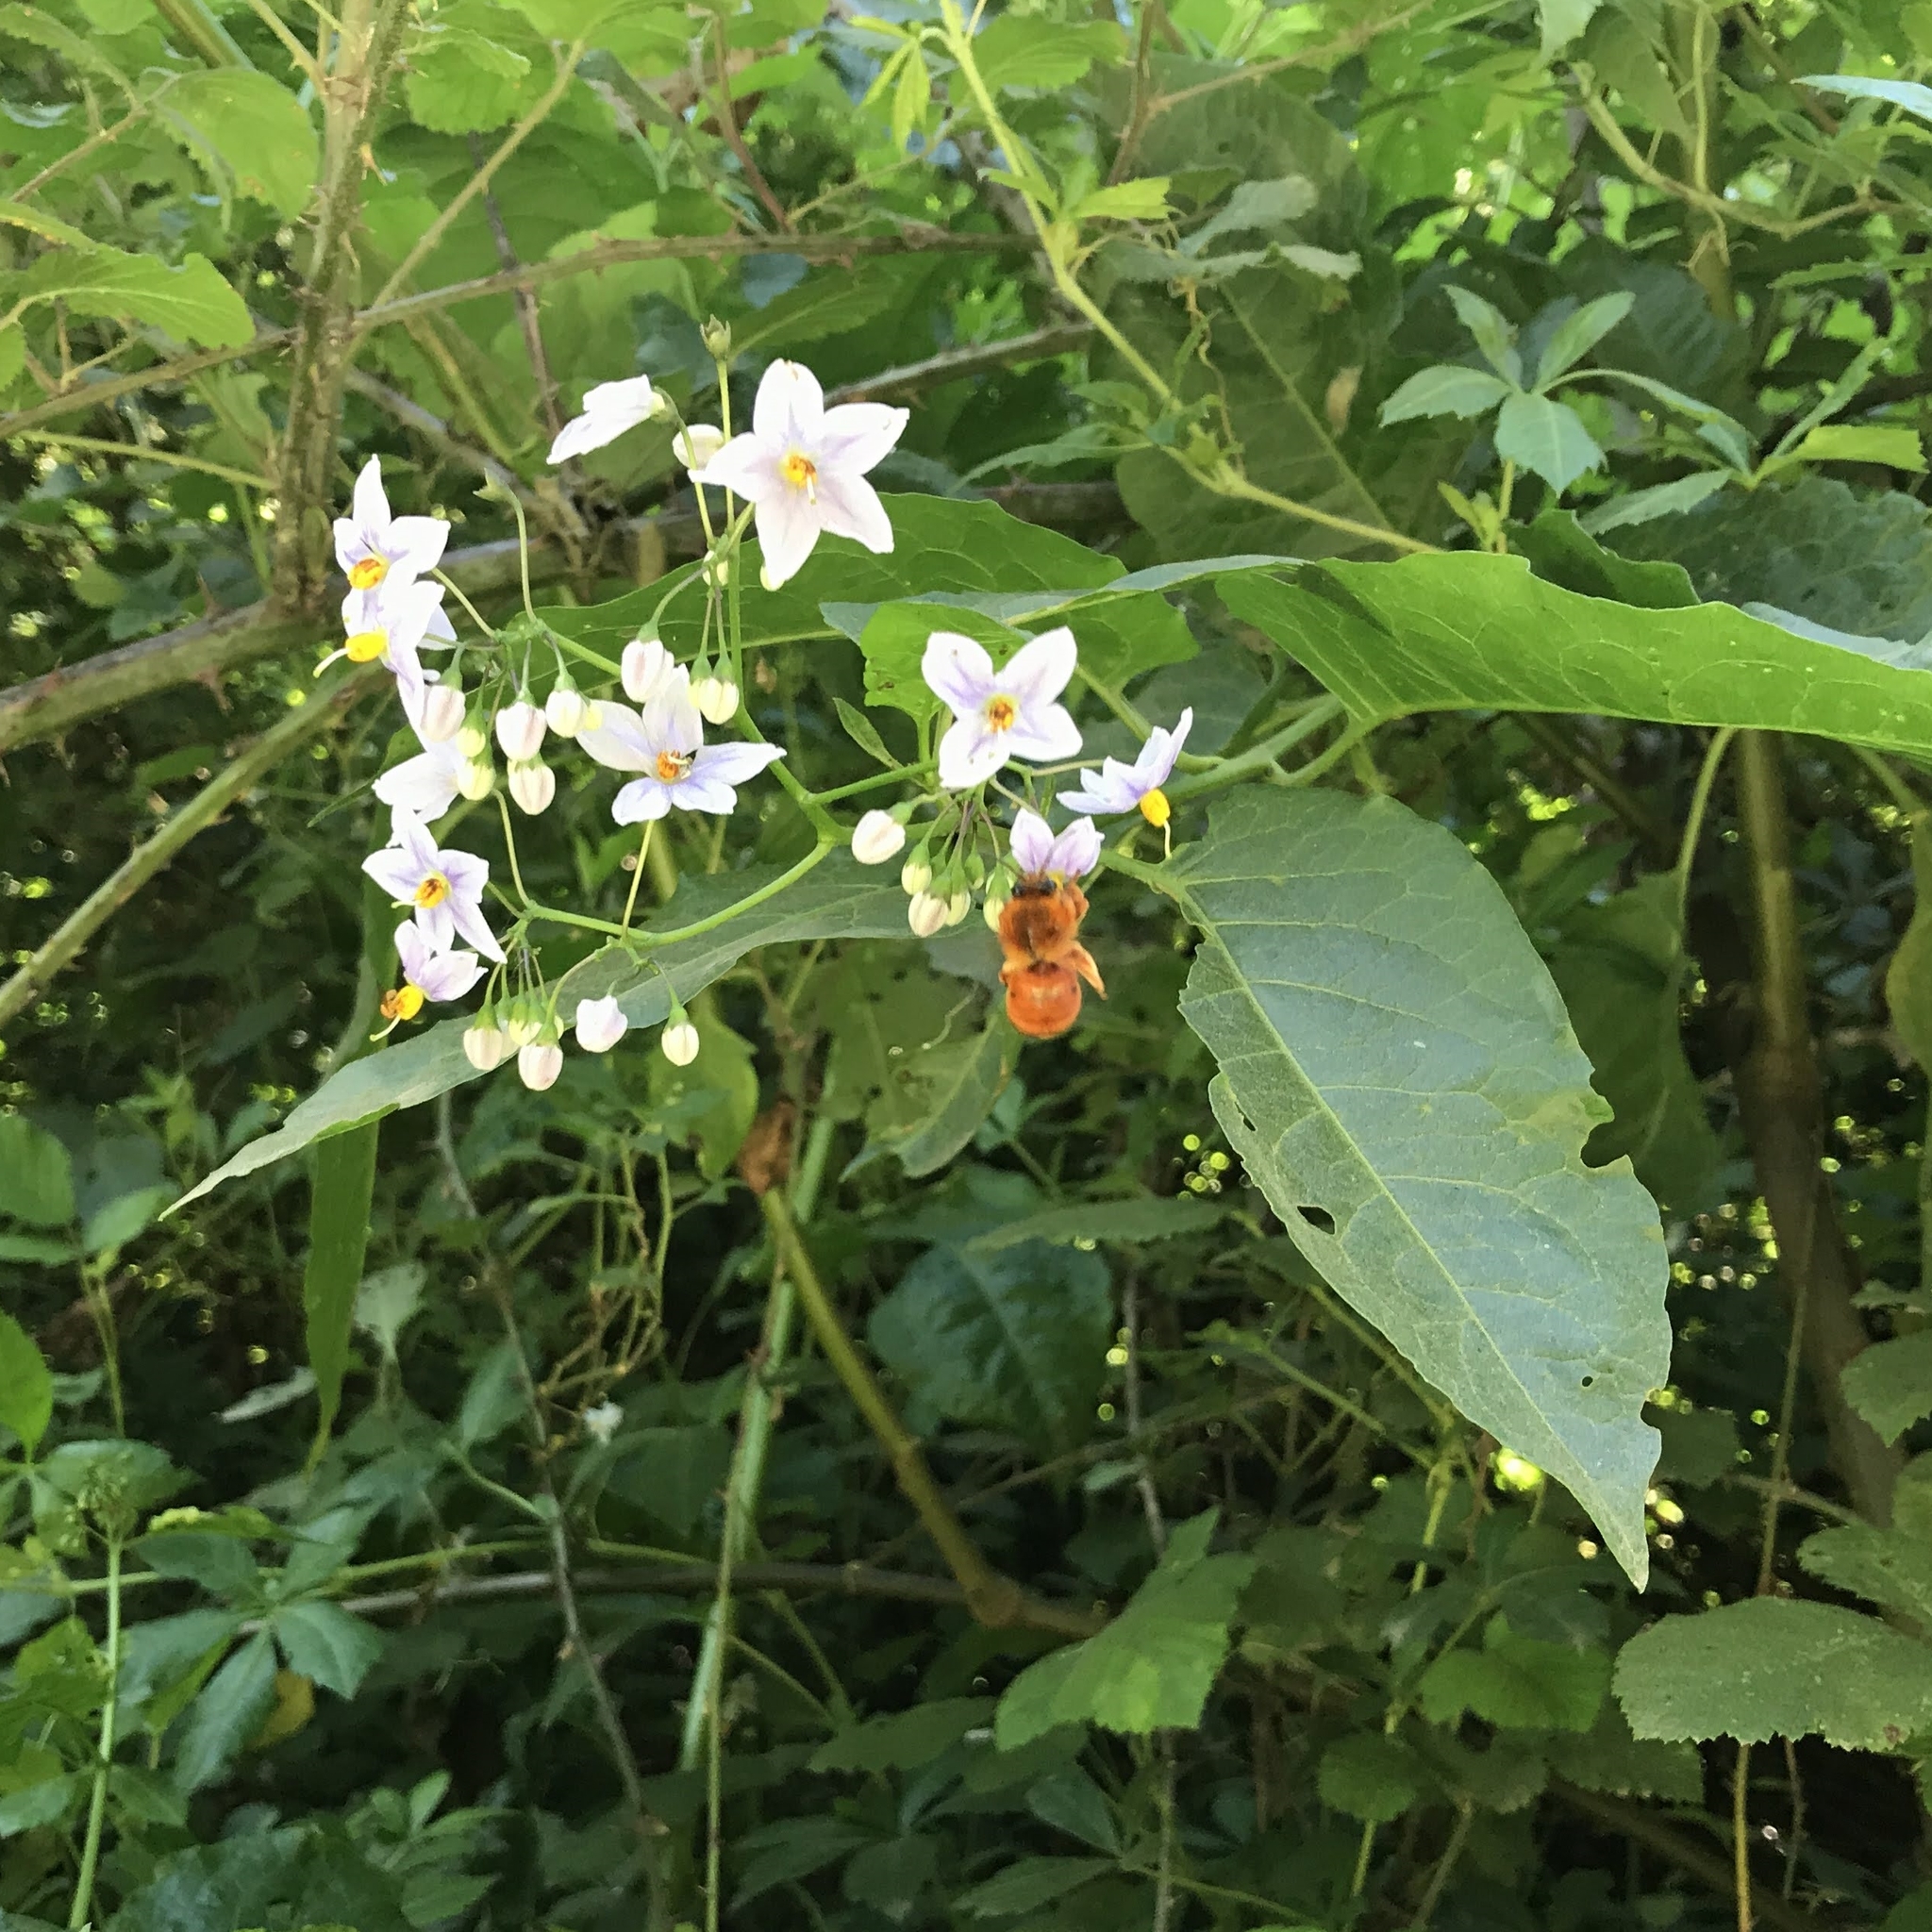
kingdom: Animalia
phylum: Arthropoda
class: Insecta
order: Hymenoptera
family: Colletidae
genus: Diphaglossa
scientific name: Diphaglossa gayi
